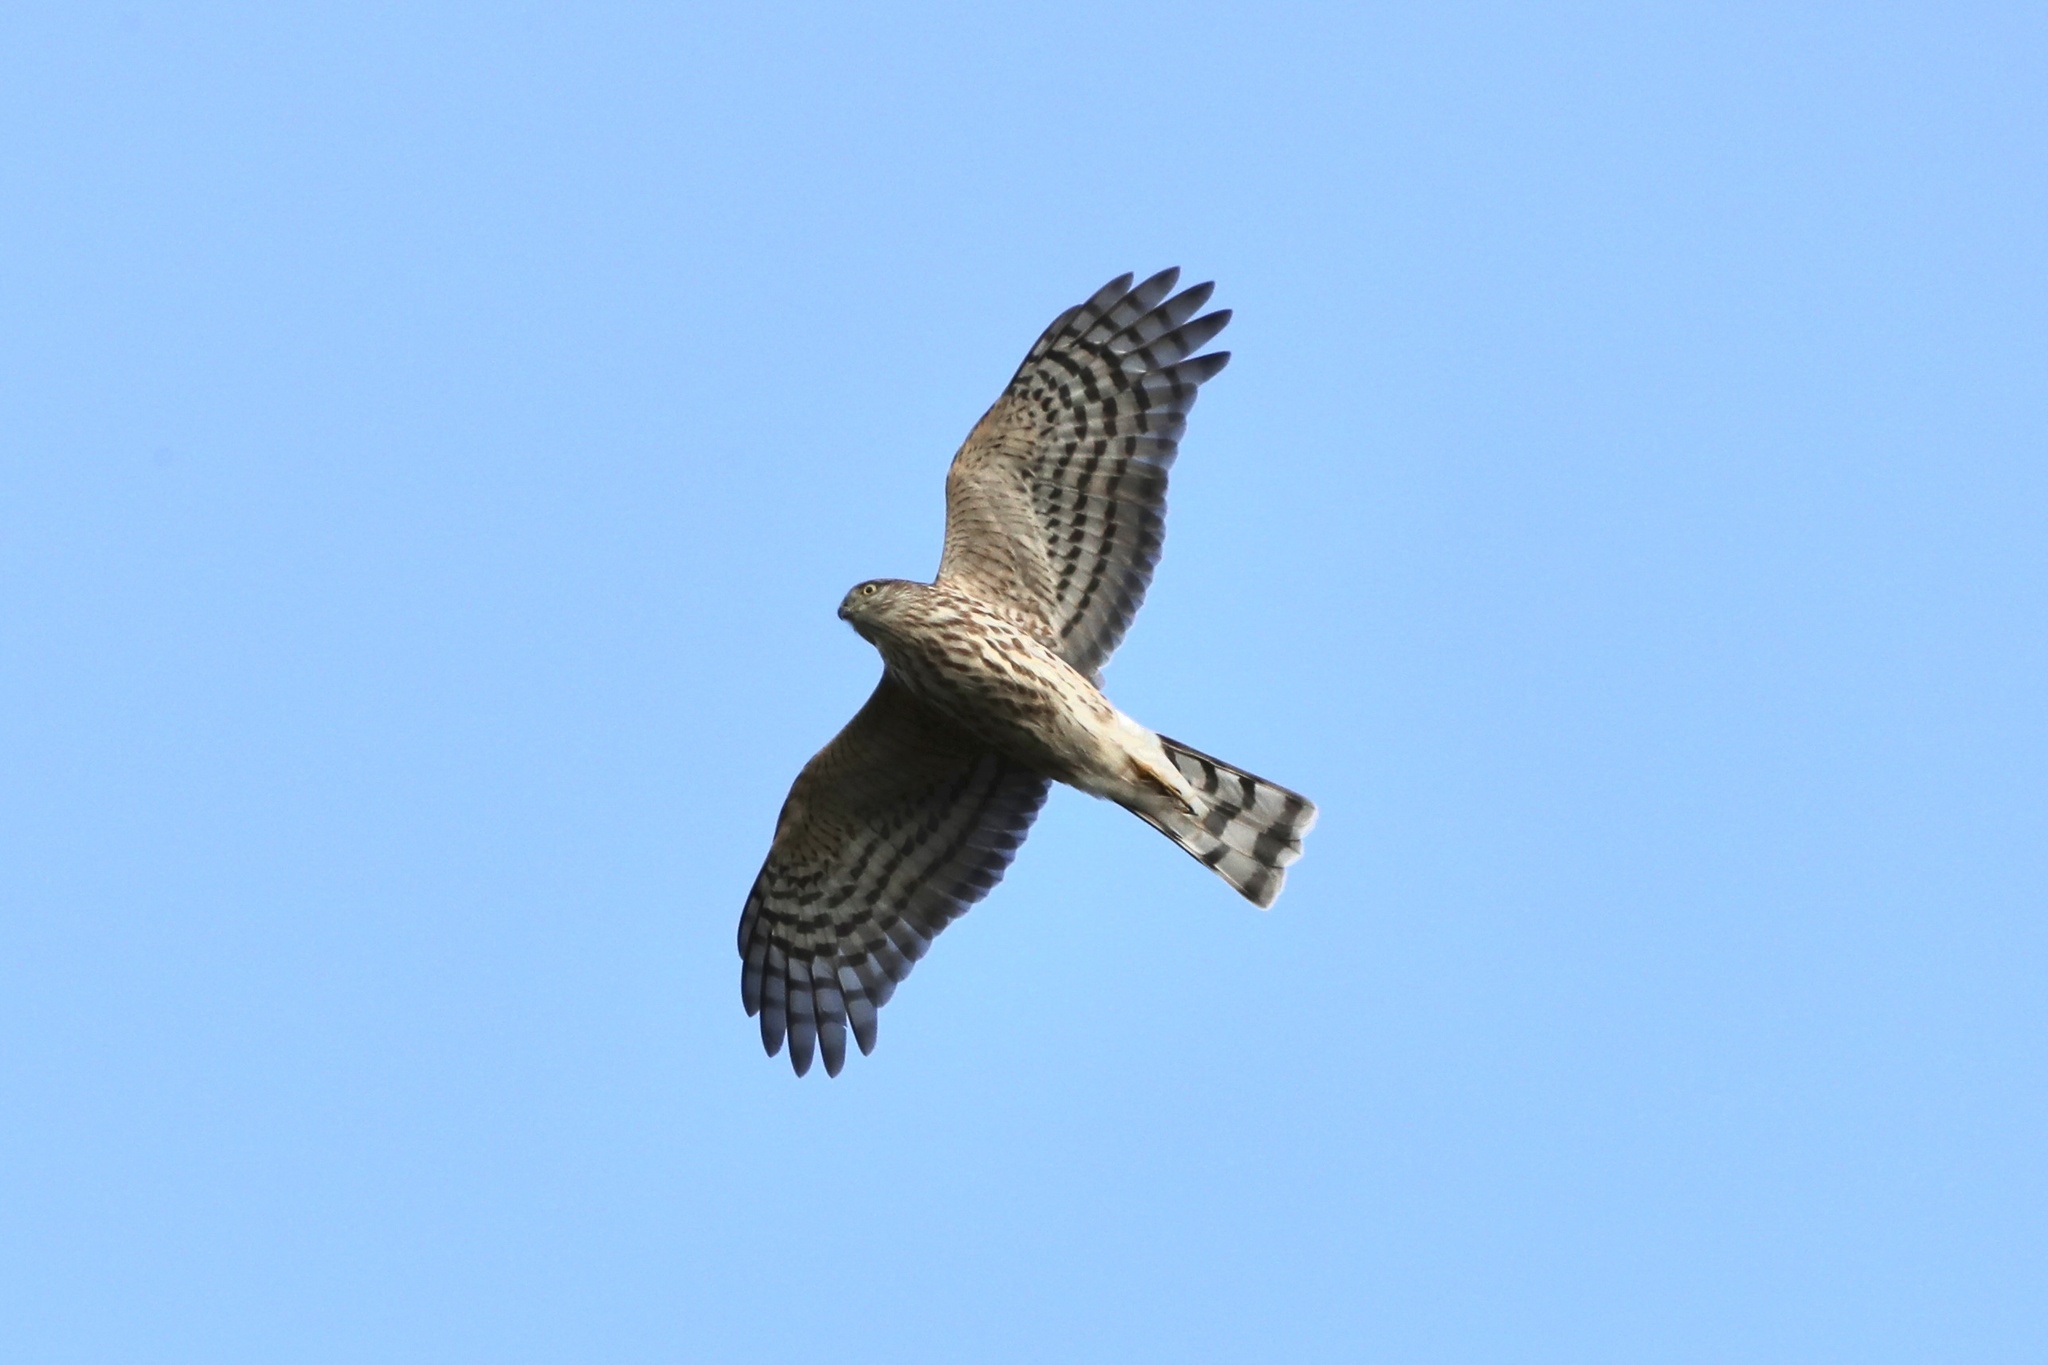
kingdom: Animalia
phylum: Chordata
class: Aves
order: Accipitriformes
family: Accipitridae
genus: Accipiter
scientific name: Accipiter striatus
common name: Sharp-shinned hawk
